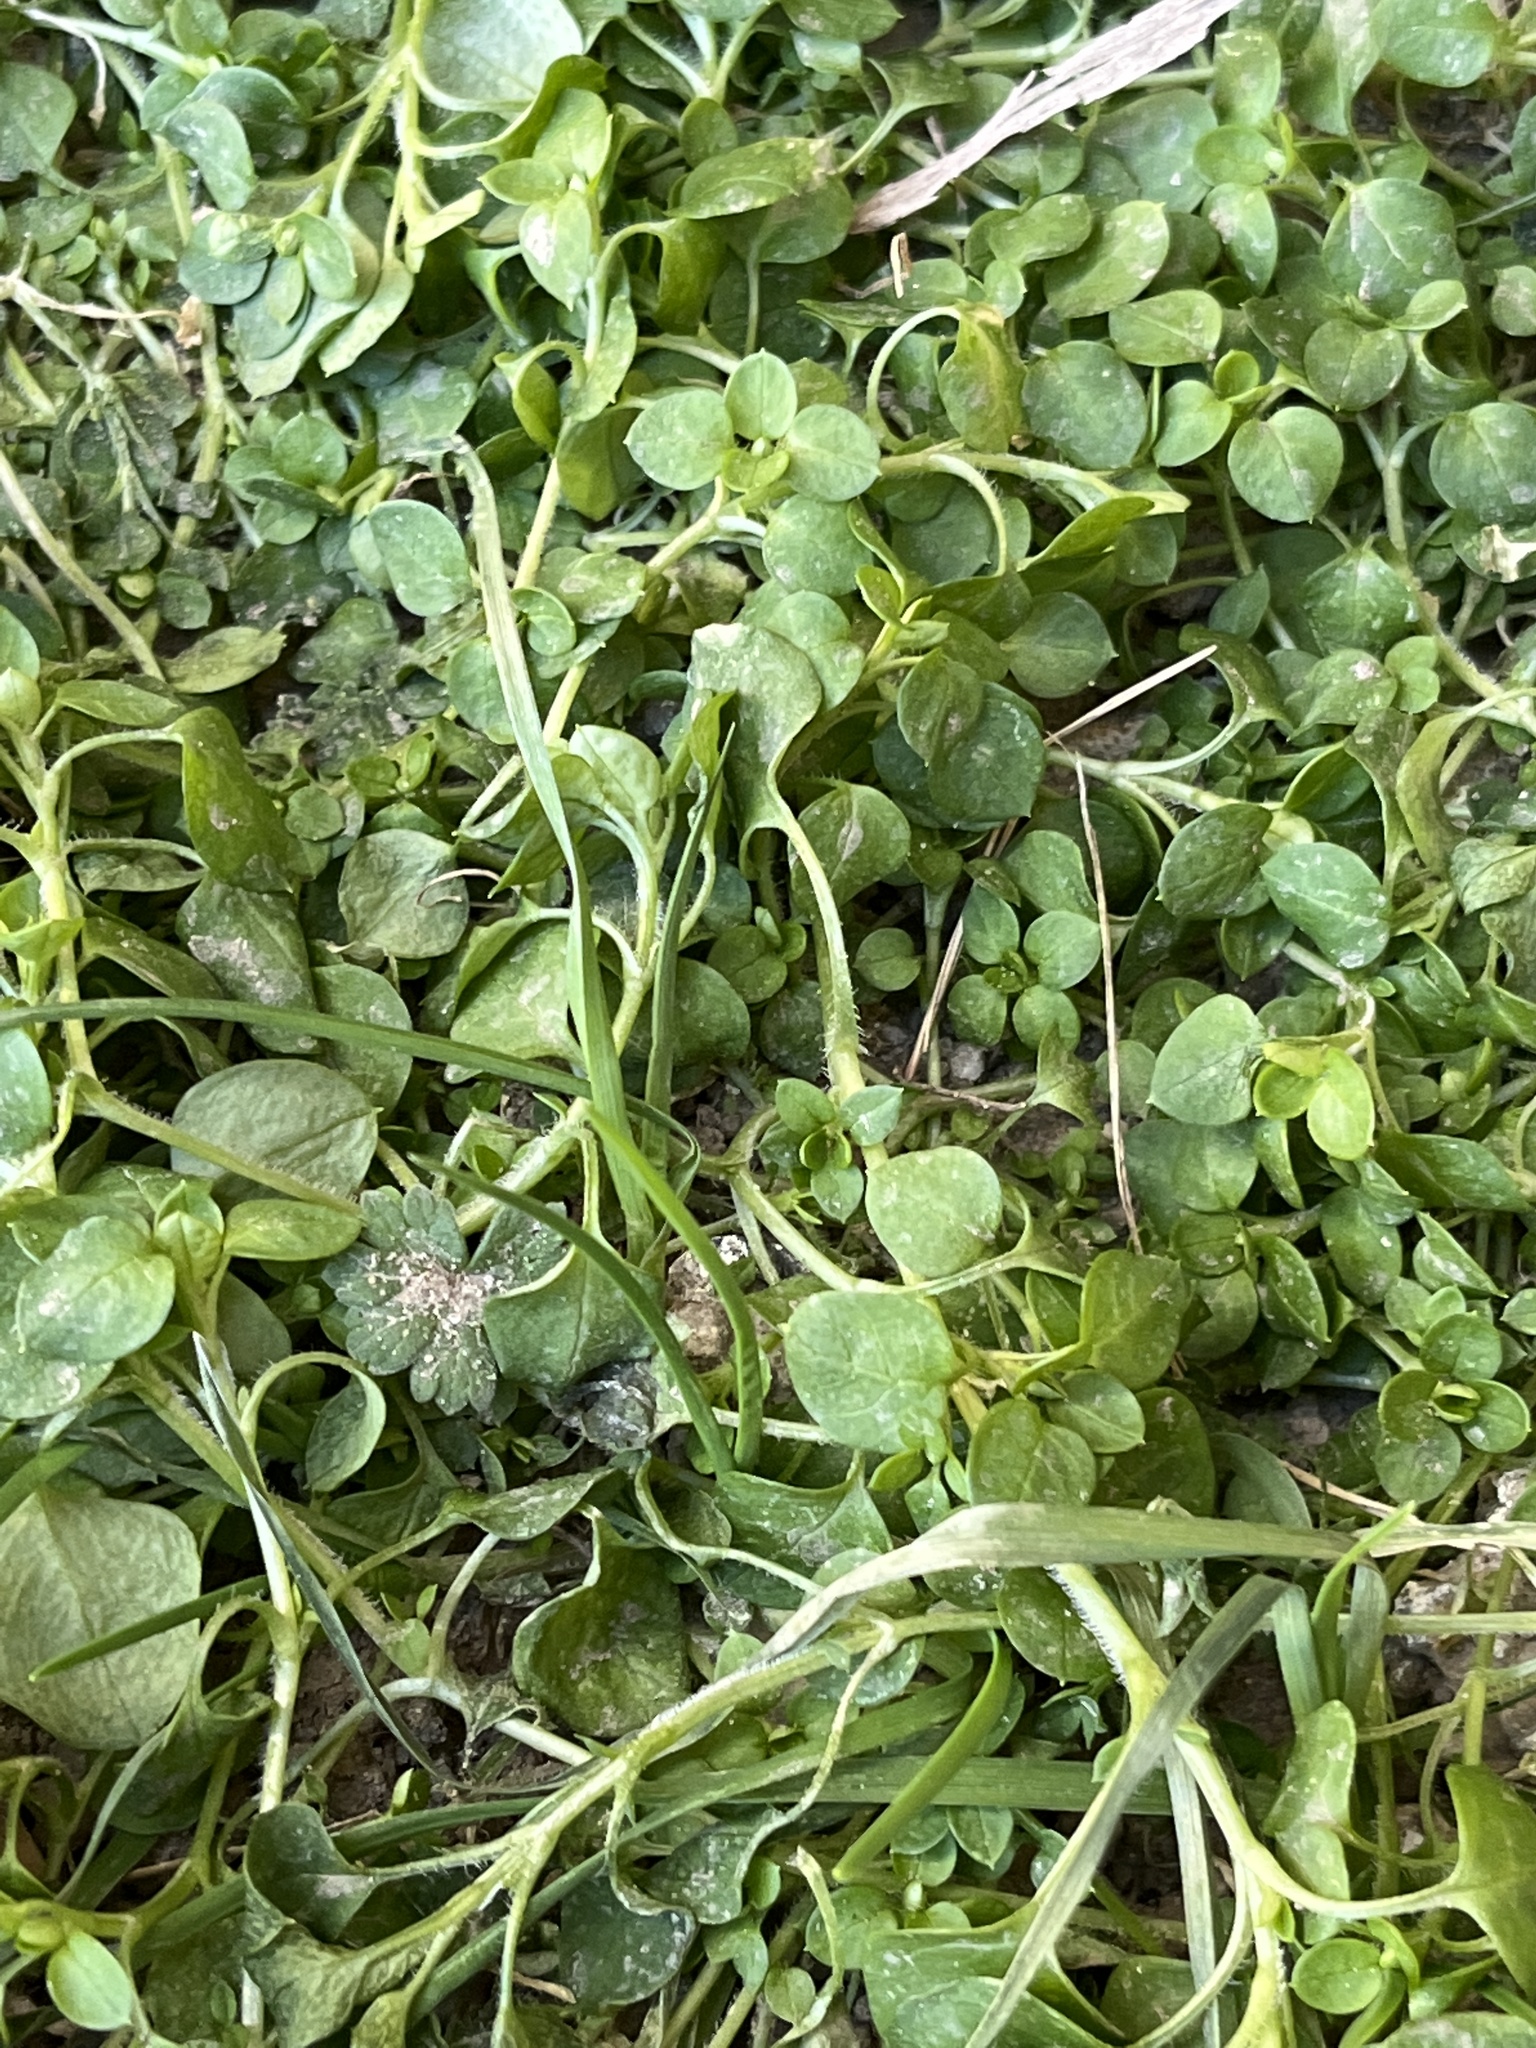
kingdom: Plantae
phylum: Tracheophyta
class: Magnoliopsida
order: Caryophyllales
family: Caryophyllaceae
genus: Stellaria
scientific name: Stellaria media
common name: Common chickweed
